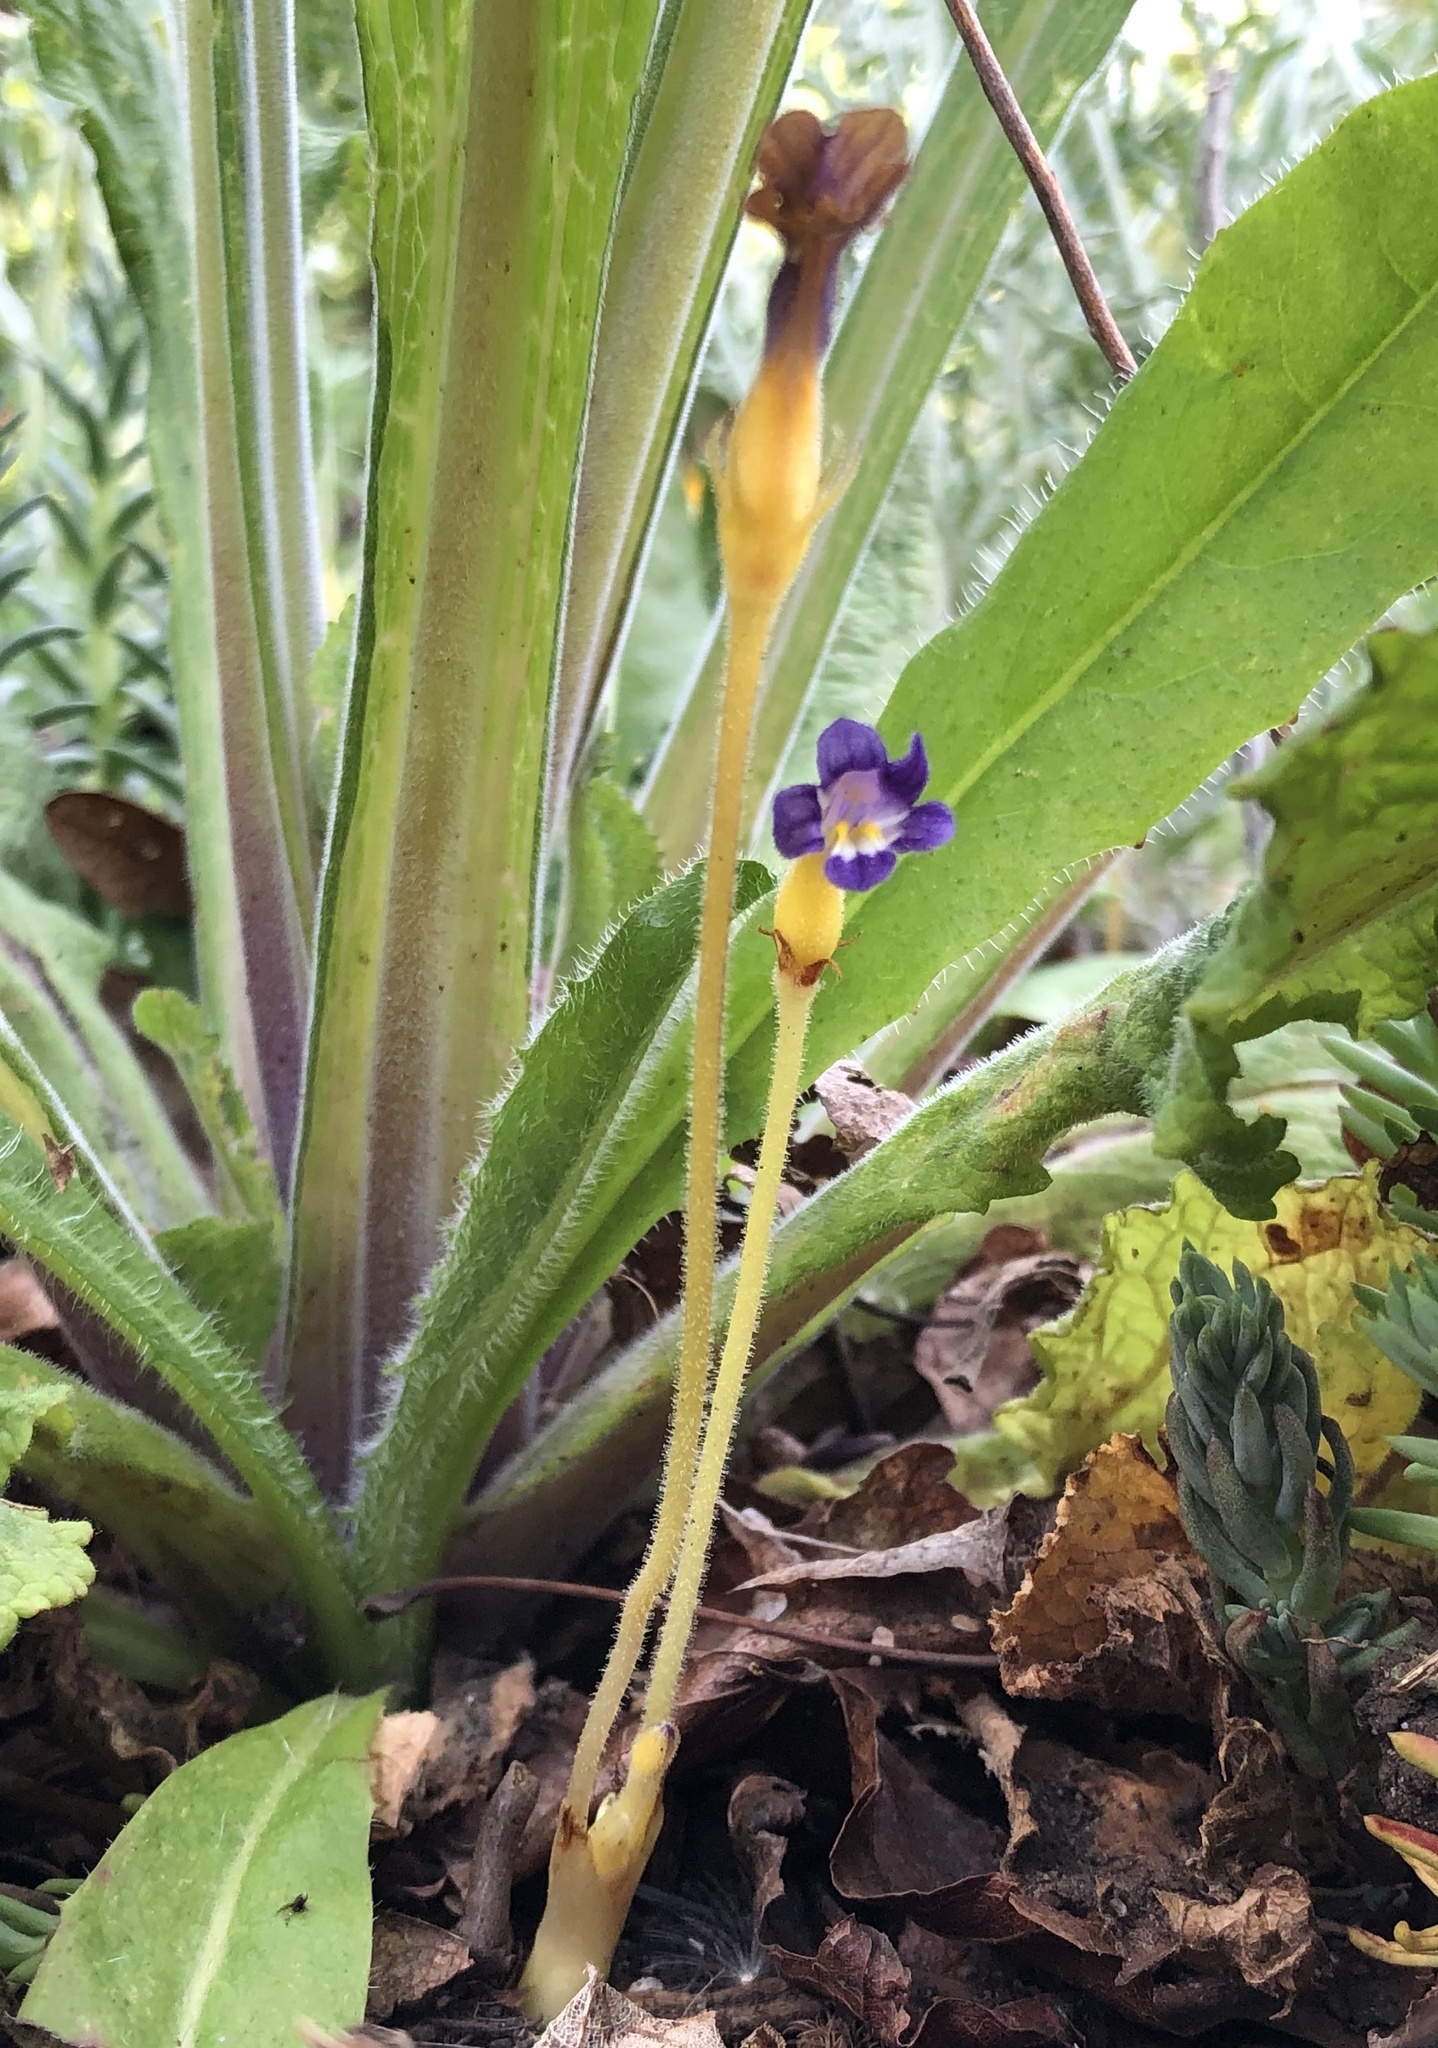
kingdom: Plantae
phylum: Tracheophyta
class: Magnoliopsida
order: Lamiales
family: Orobanchaceae
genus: Aphyllon
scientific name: Aphyllon uniflorum
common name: One-flowered broomrape
